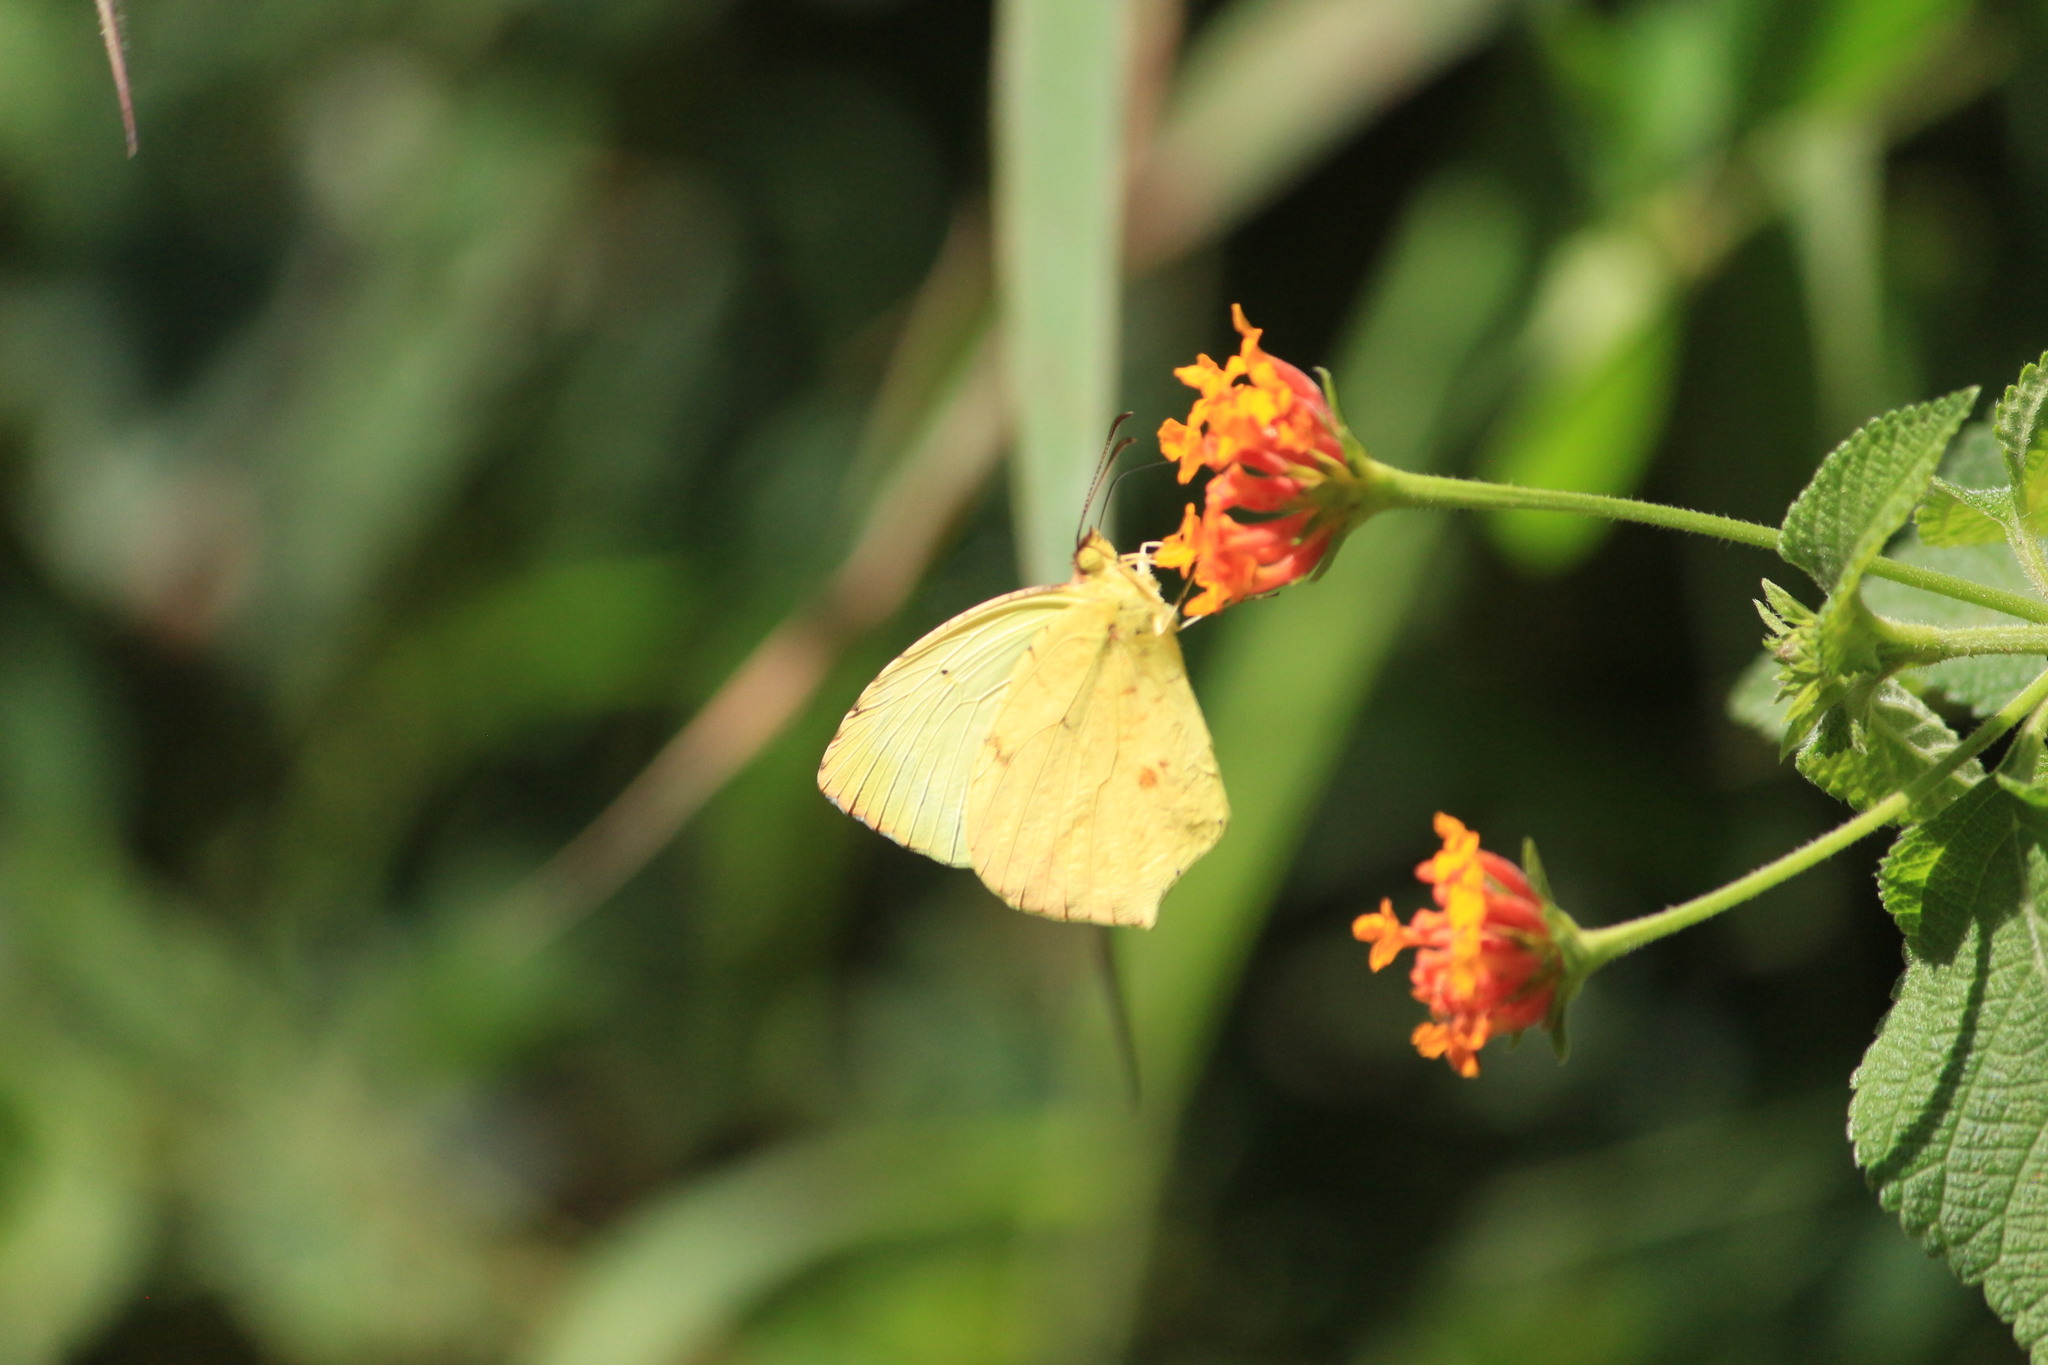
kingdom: Animalia
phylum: Arthropoda
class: Insecta
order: Lepidoptera
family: Pieridae
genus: Abaeis
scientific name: Abaeis salome
